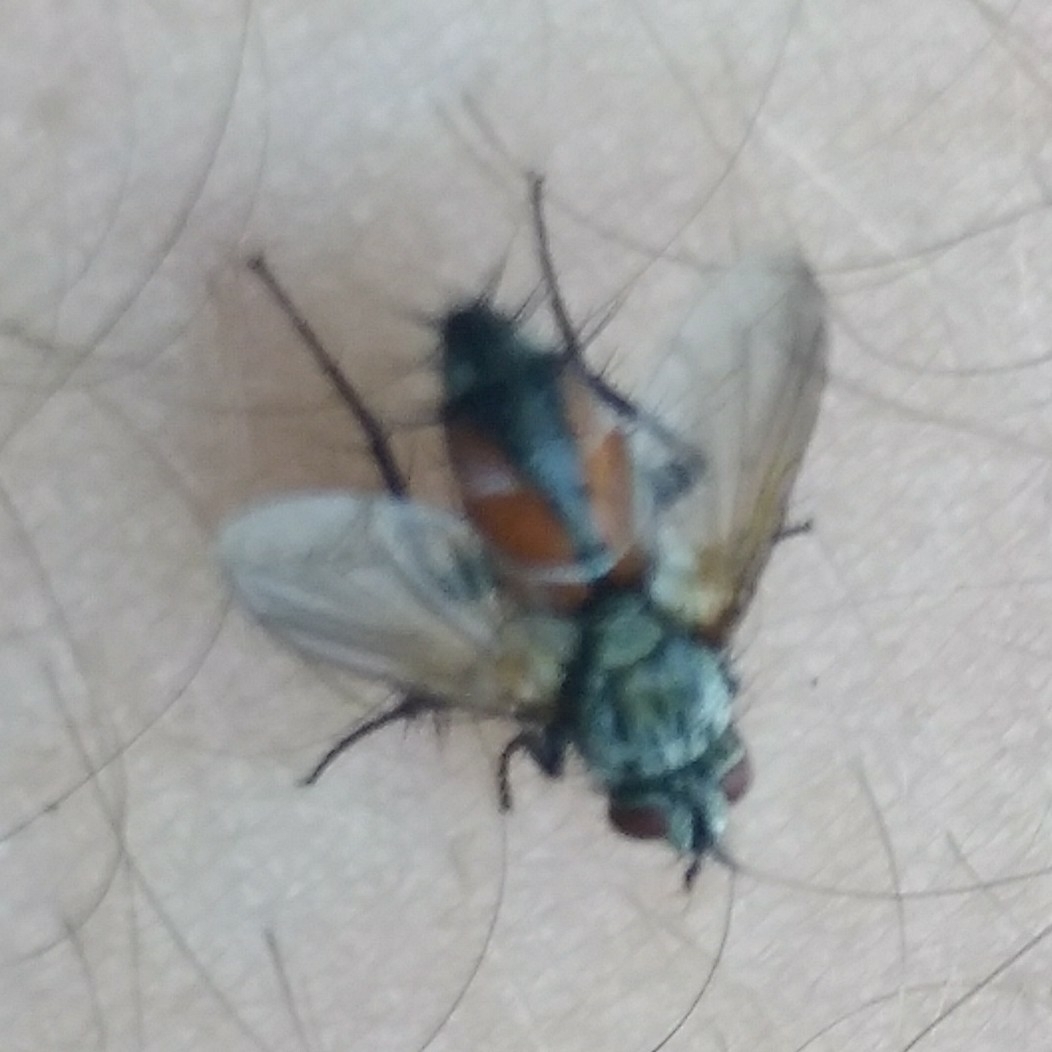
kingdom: Animalia
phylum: Arthropoda
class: Insecta
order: Diptera
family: Tachinidae
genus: Eriothrix
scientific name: Eriothrix rufomaculatus
